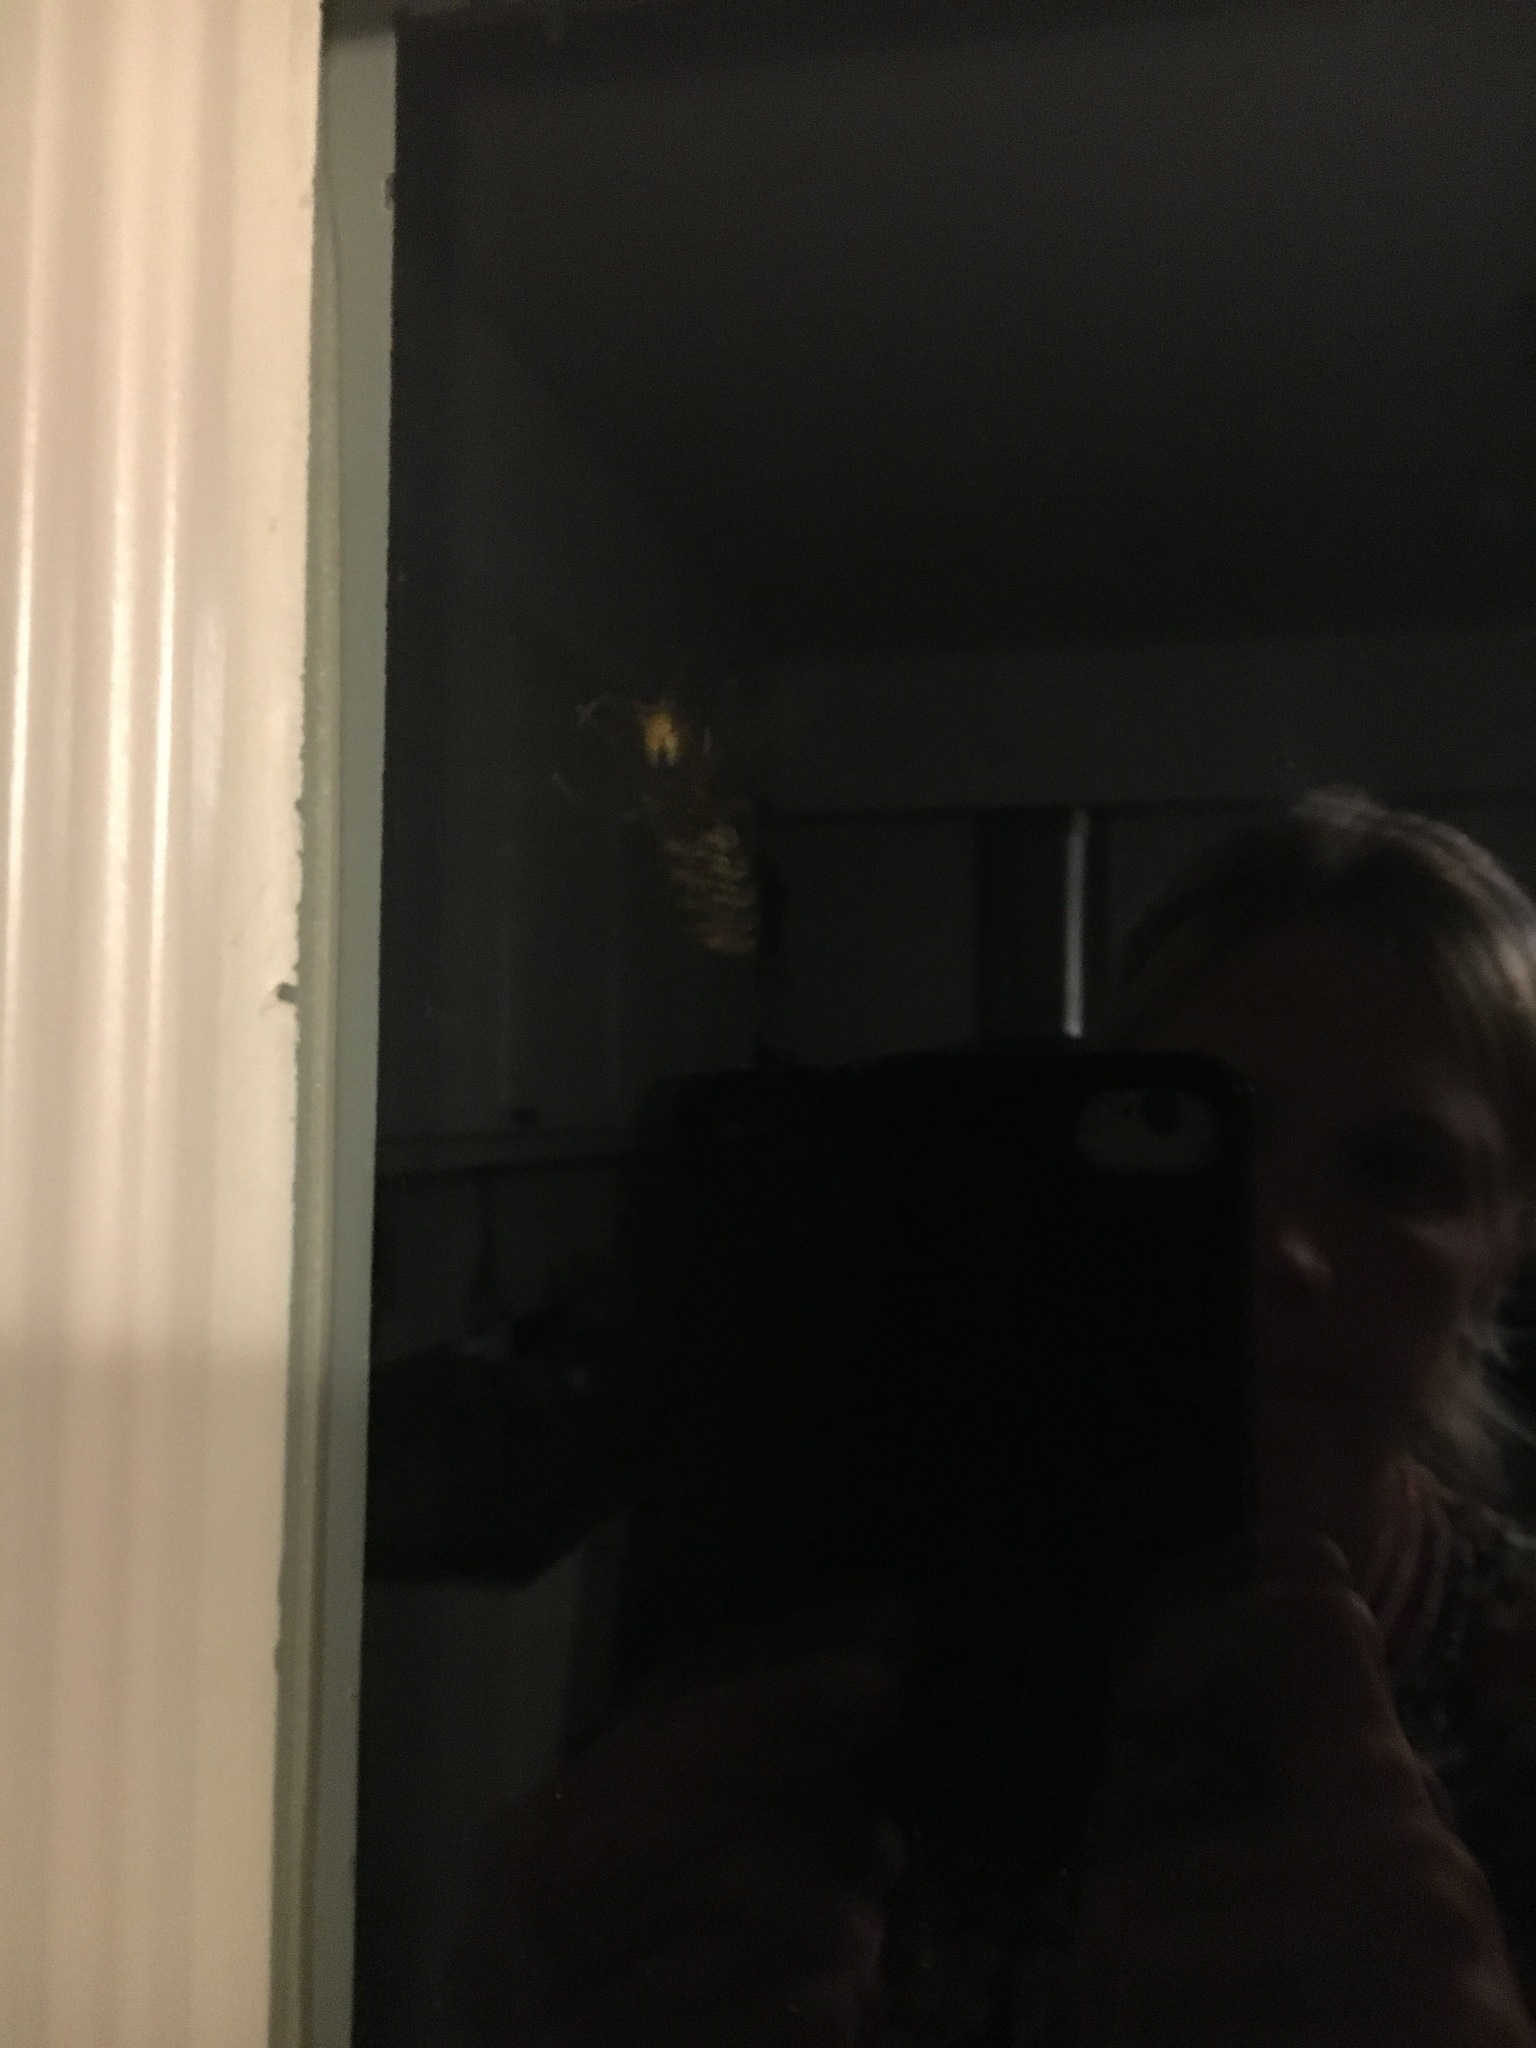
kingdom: Animalia
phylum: Arthropoda
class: Insecta
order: Hymenoptera
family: Vespidae
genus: Vespa
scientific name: Vespa crabro
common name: Hornet
